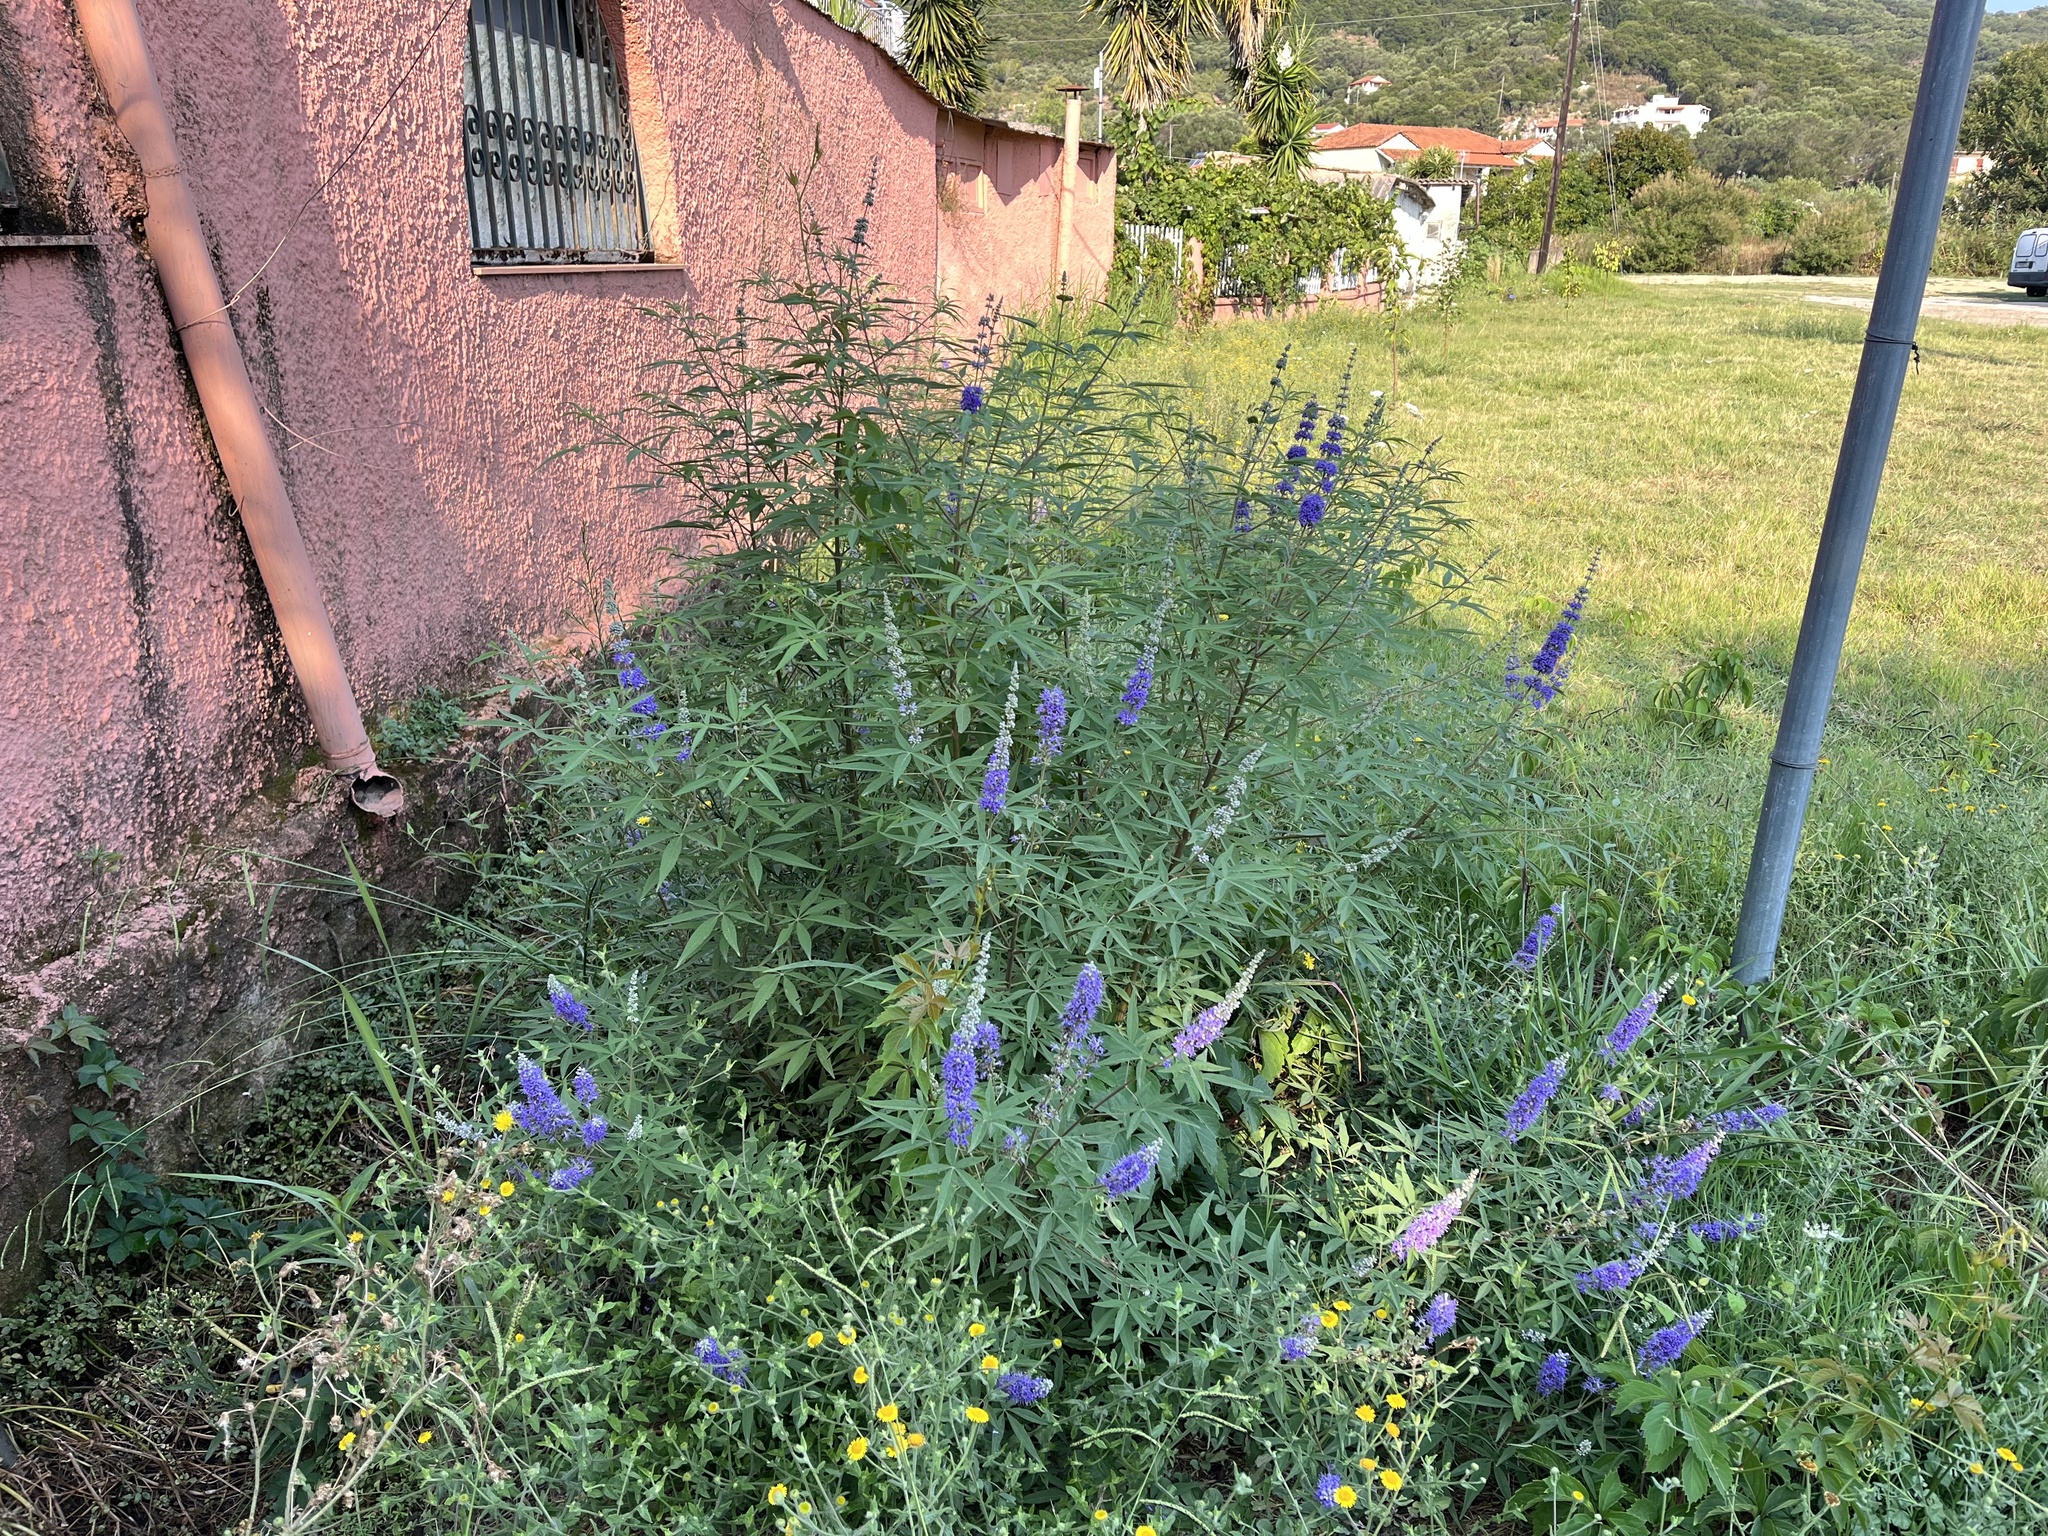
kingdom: Plantae
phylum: Tracheophyta
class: Magnoliopsida
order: Lamiales
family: Lamiaceae
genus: Vitex
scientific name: Vitex agnus-castus
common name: Chasteberry
